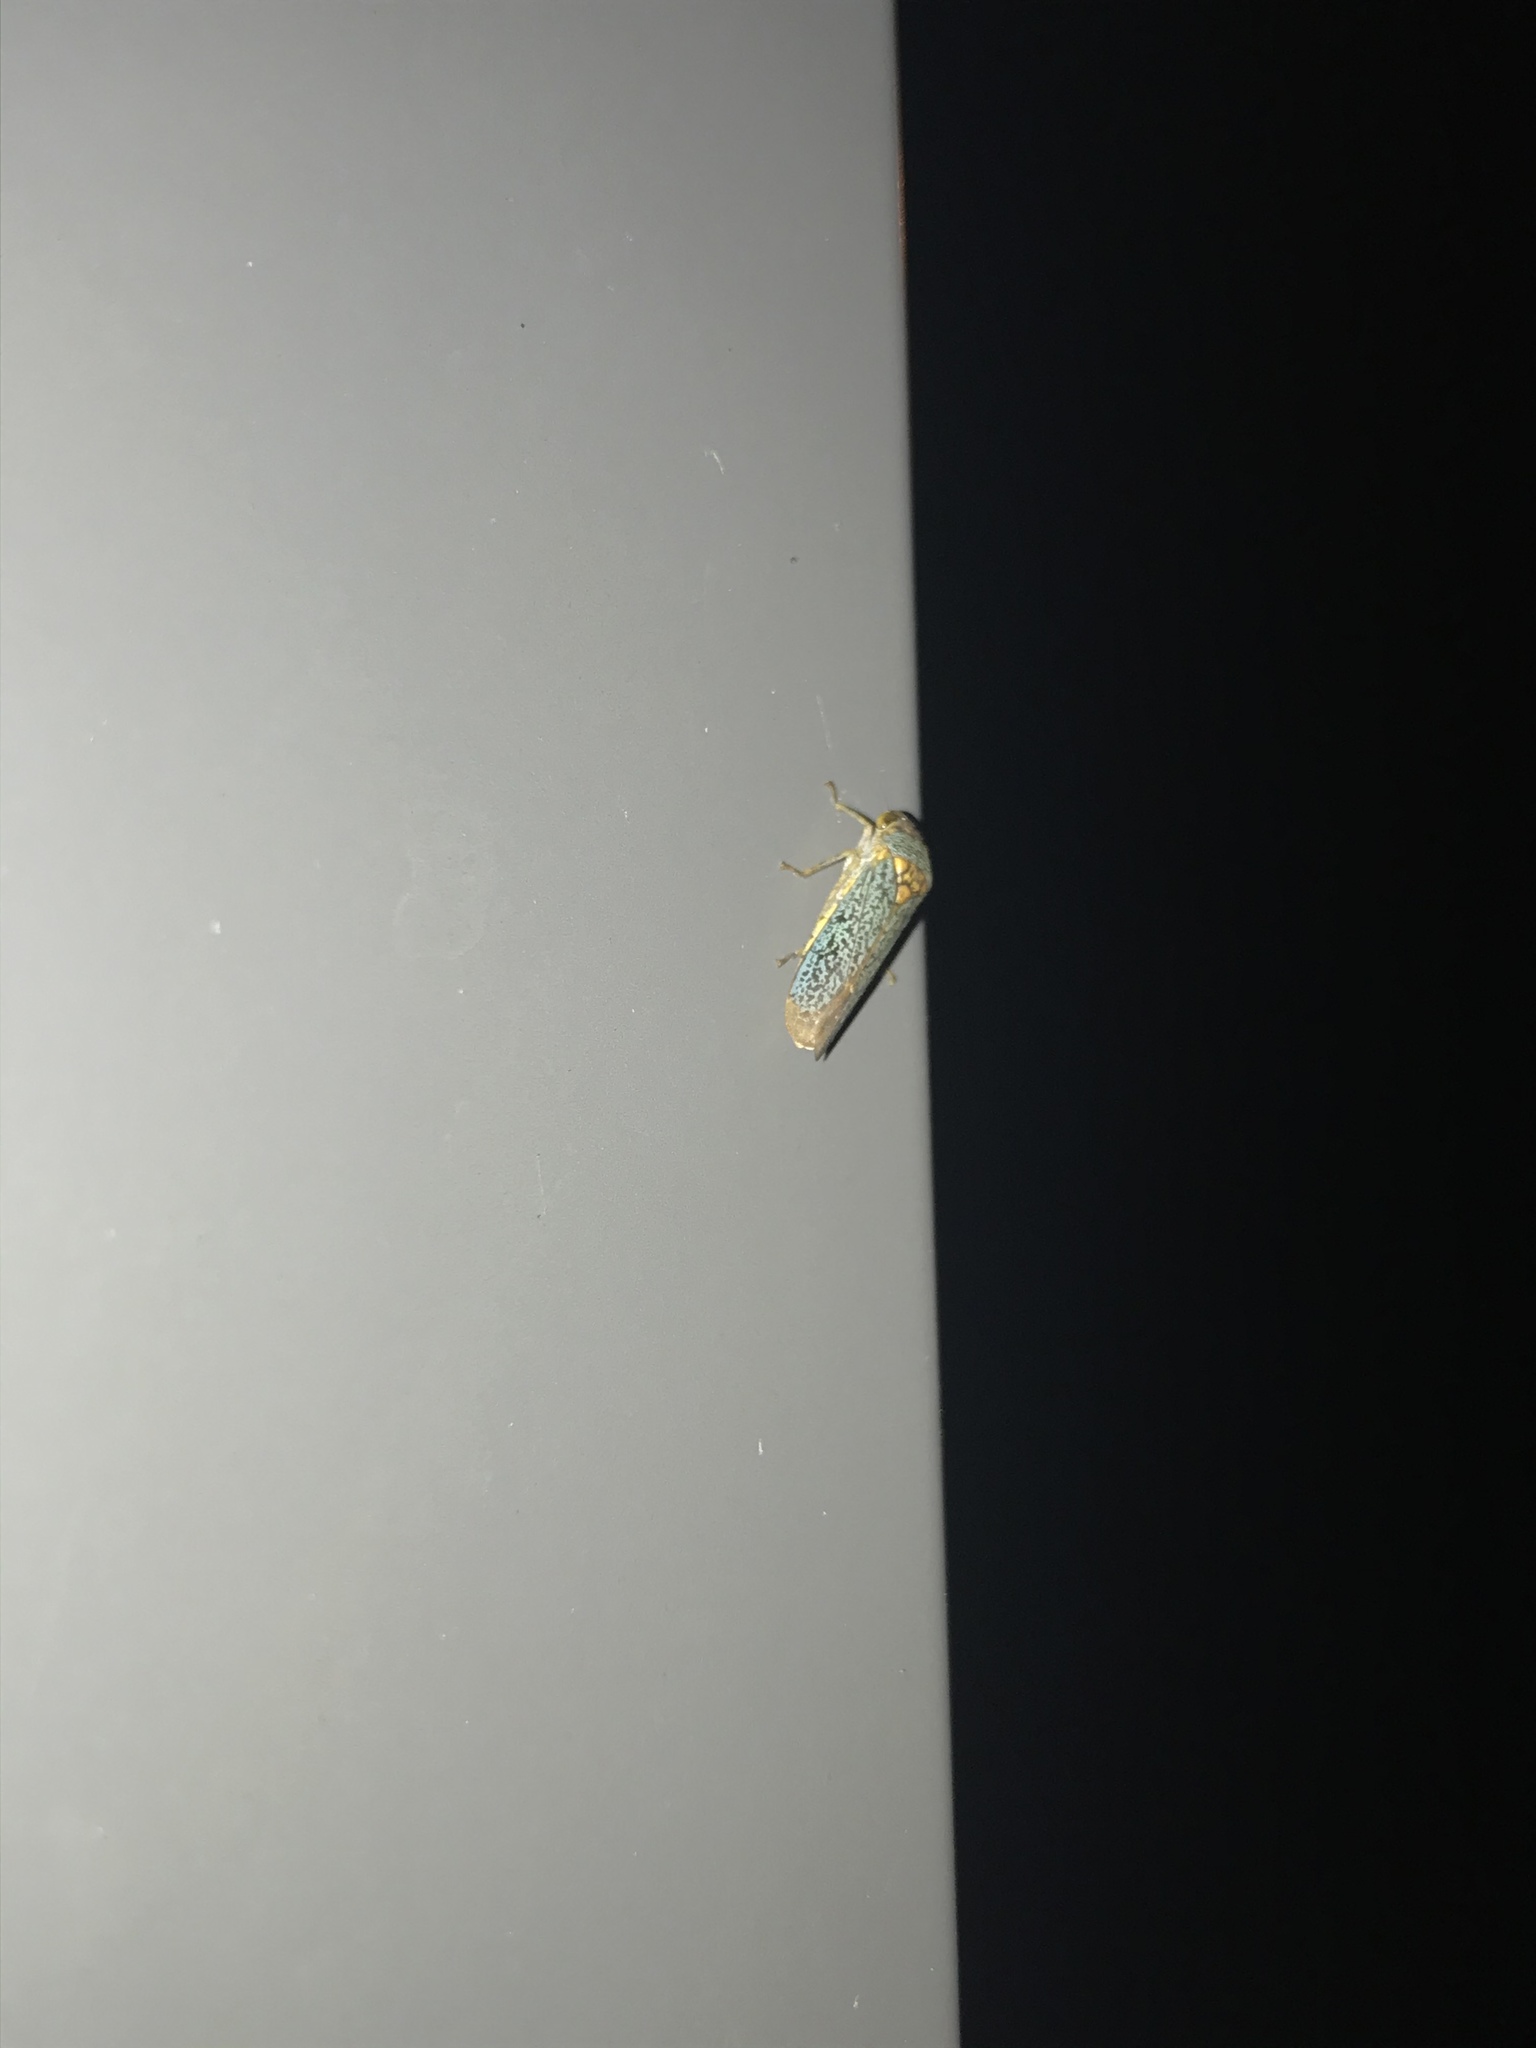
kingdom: Animalia
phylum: Arthropoda
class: Insecta
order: Hemiptera
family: Cicadellidae
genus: Oncometopia
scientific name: Oncometopia orbona
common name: Broad-headed sharpshooter
